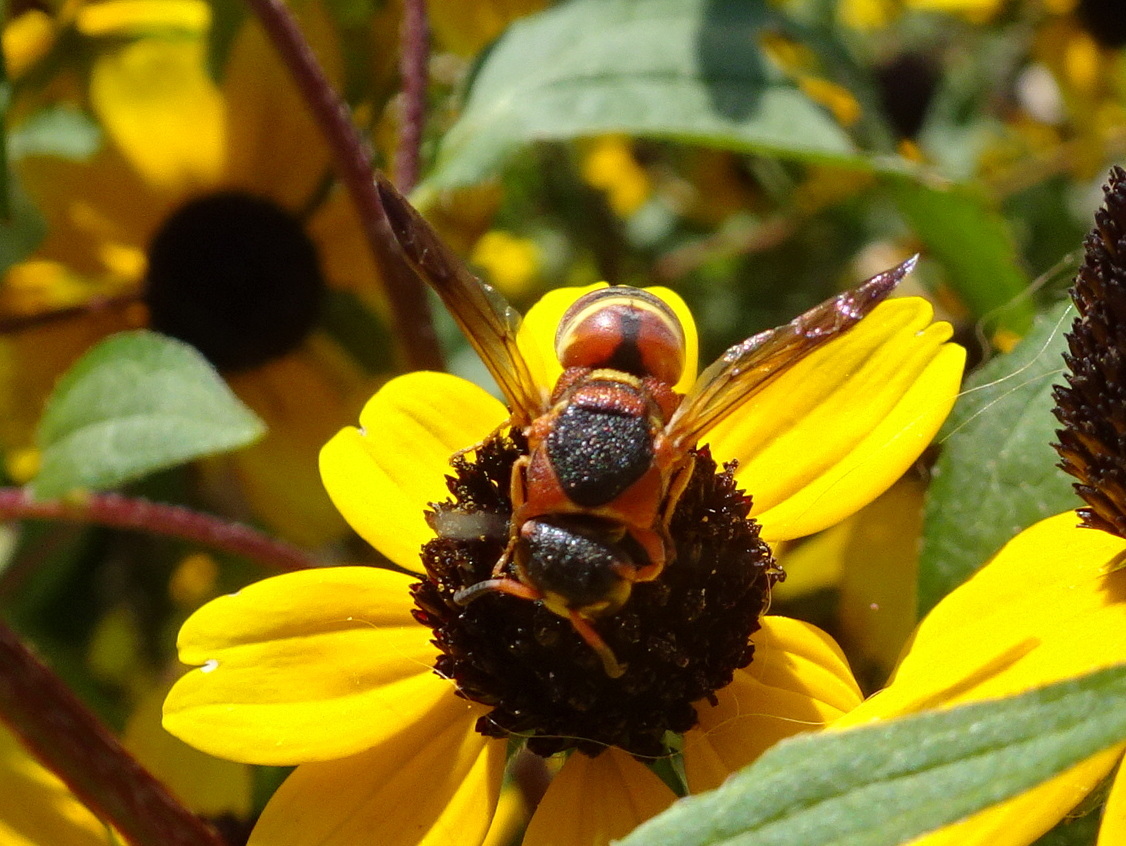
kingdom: Animalia
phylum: Arthropoda
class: Insecta
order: Hymenoptera
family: Eumenidae
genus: Euodynerus
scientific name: Euodynerus hidalgo
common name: Wasp
